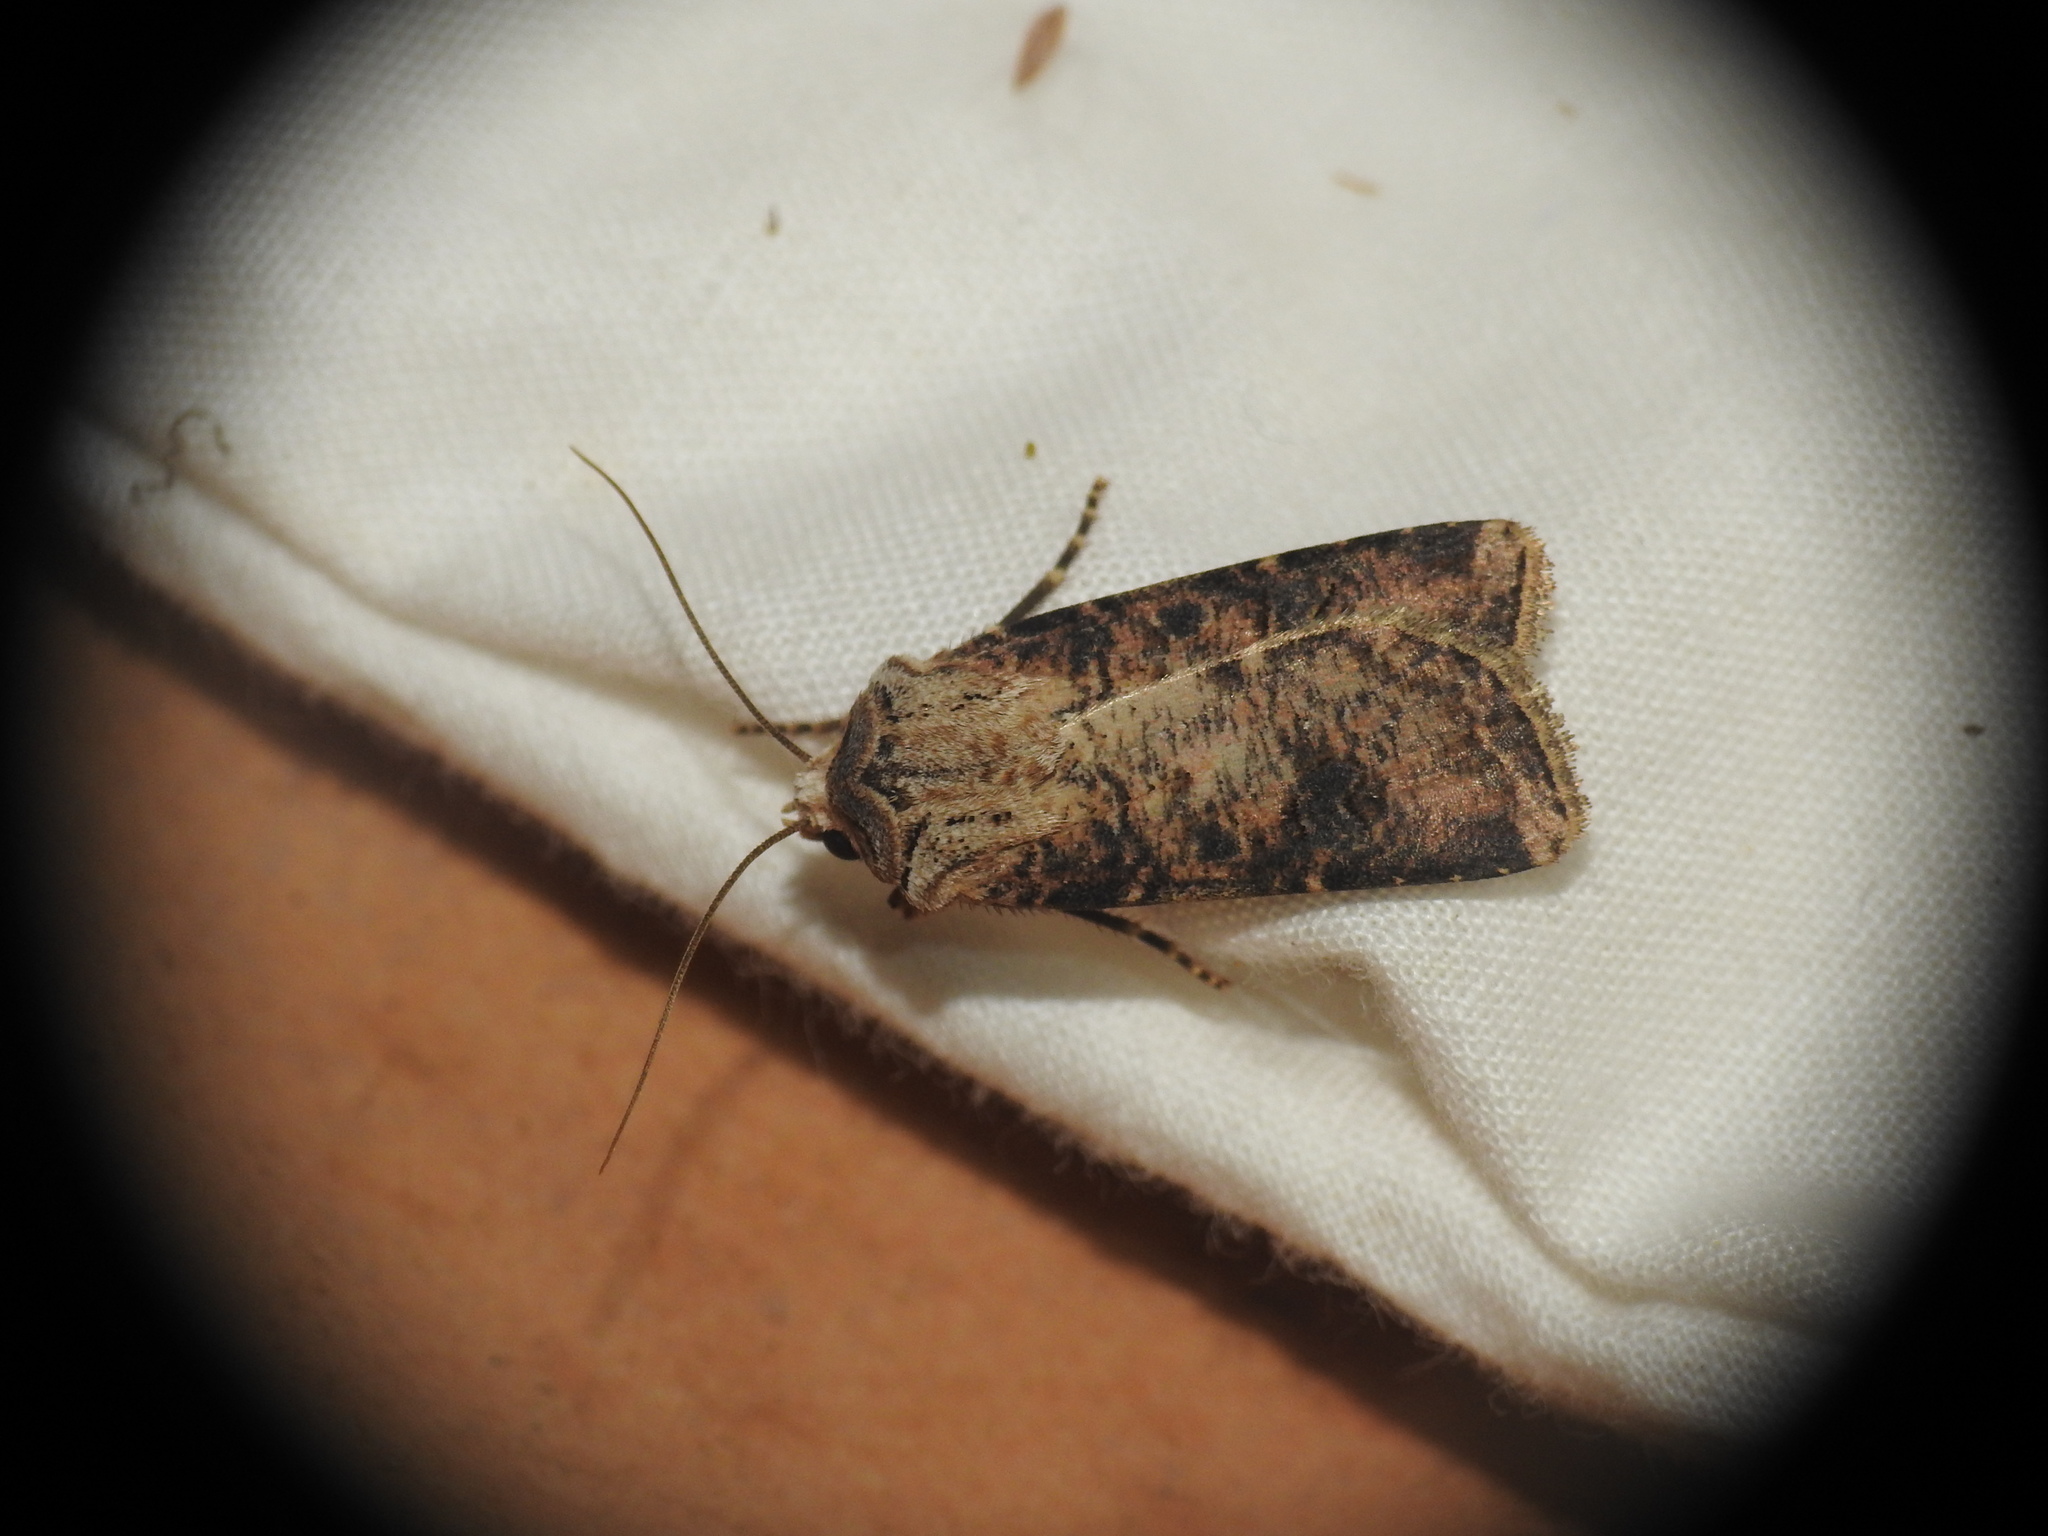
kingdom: Animalia
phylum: Arthropoda
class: Insecta
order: Lepidoptera
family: Noctuidae
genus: Agrotis
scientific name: Agrotis clavis
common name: Heart and club
